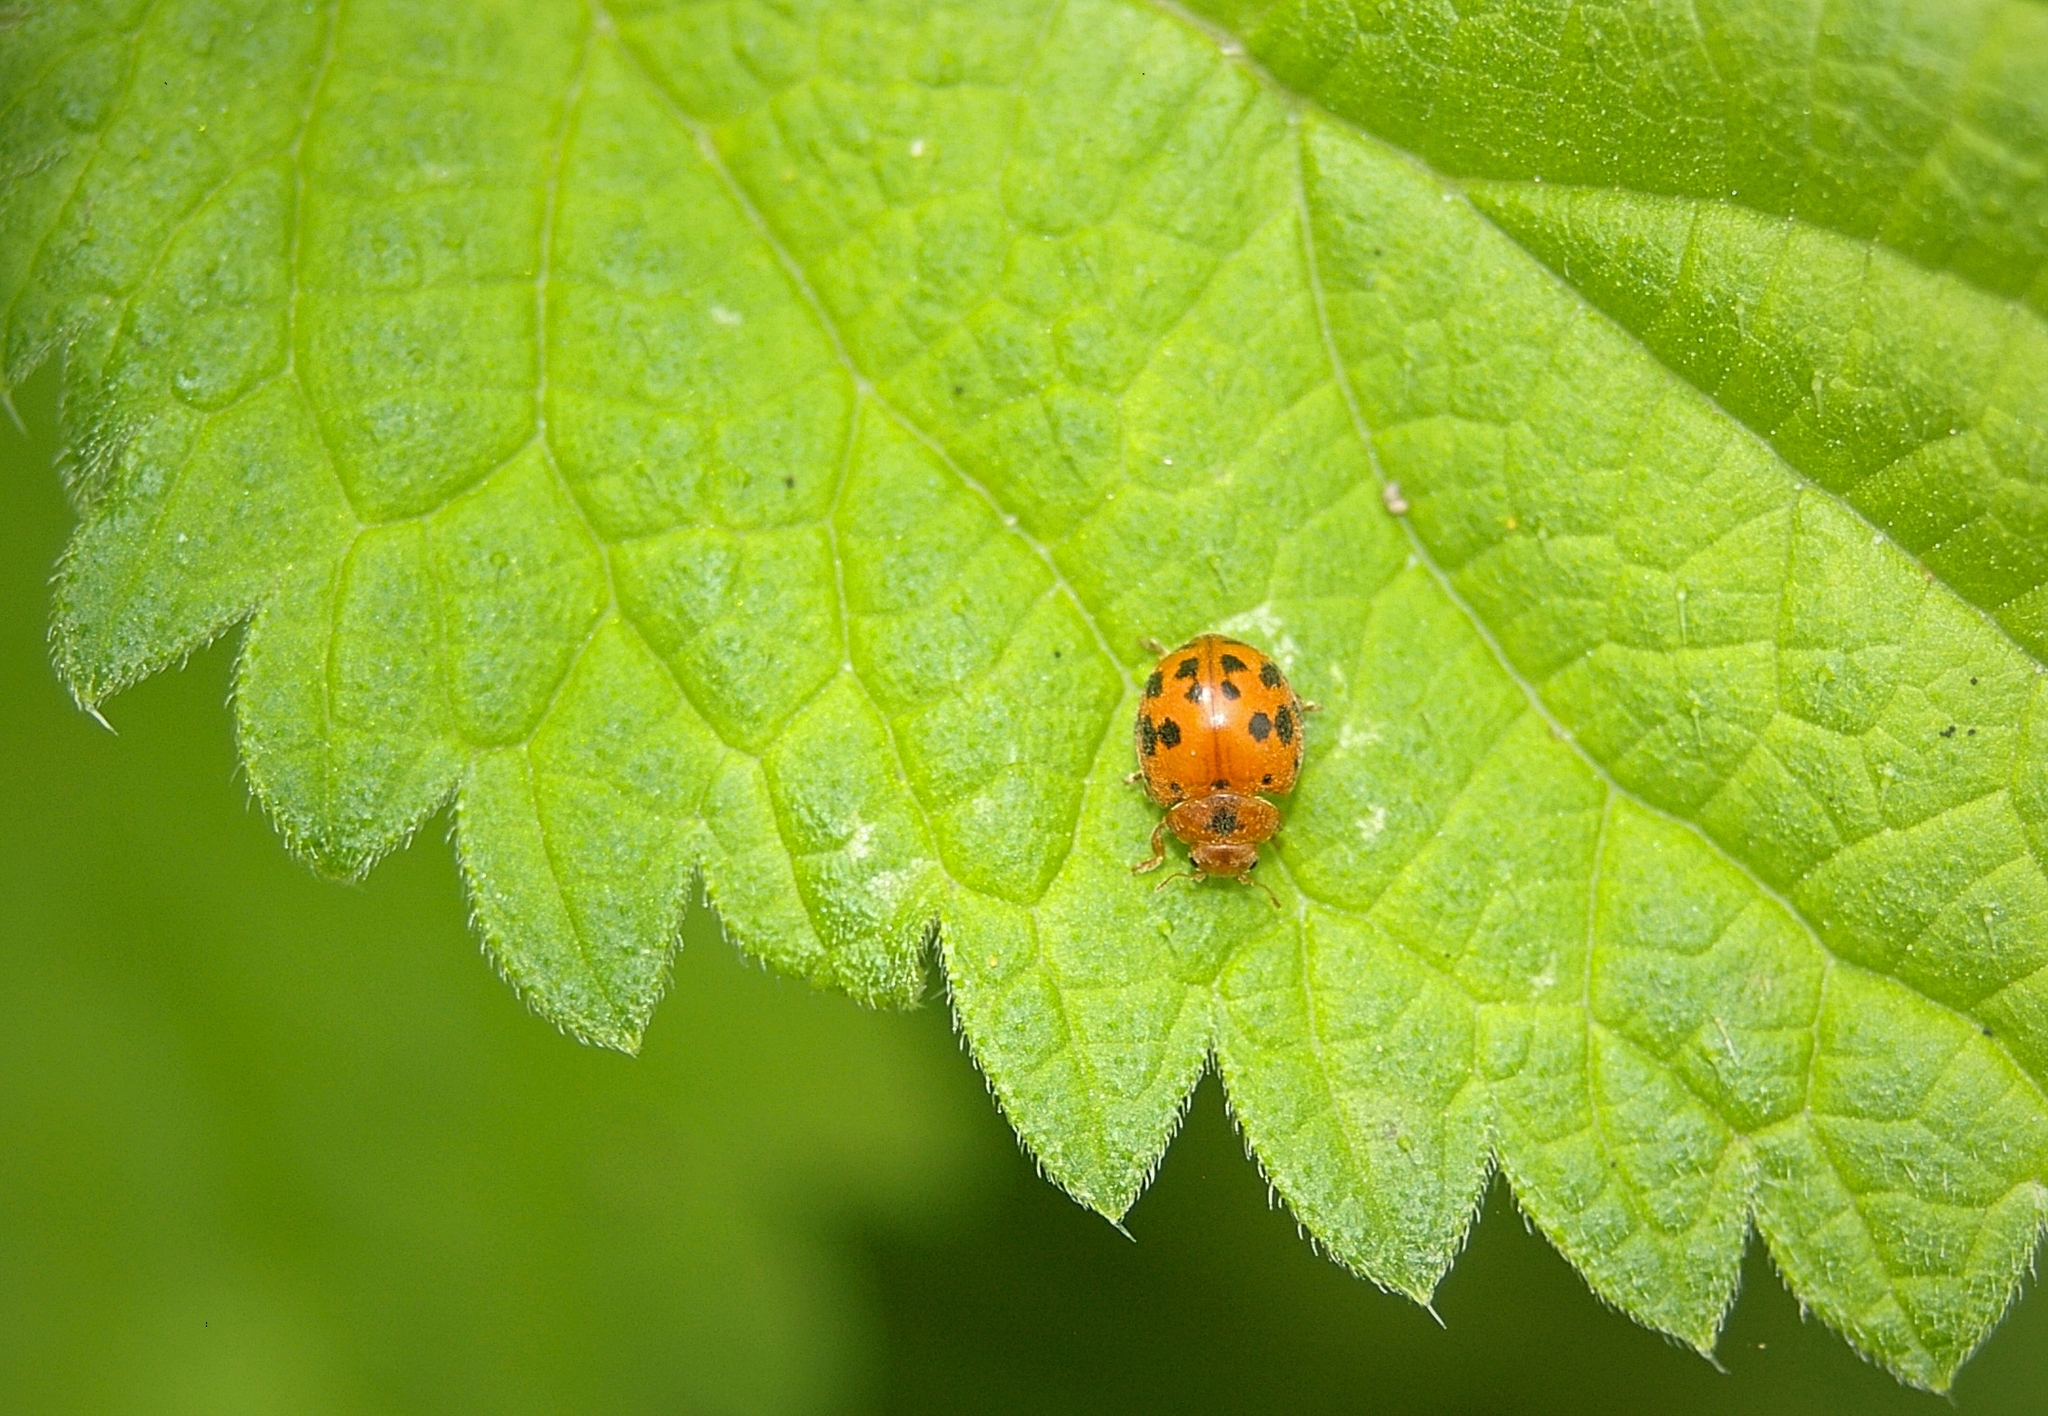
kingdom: Animalia
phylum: Arthropoda
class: Insecta
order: Coleoptera
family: Coccinellidae
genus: Subcoccinella
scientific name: Subcoccinella vigintiquatuorpunctata
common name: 24-spot ladybird
